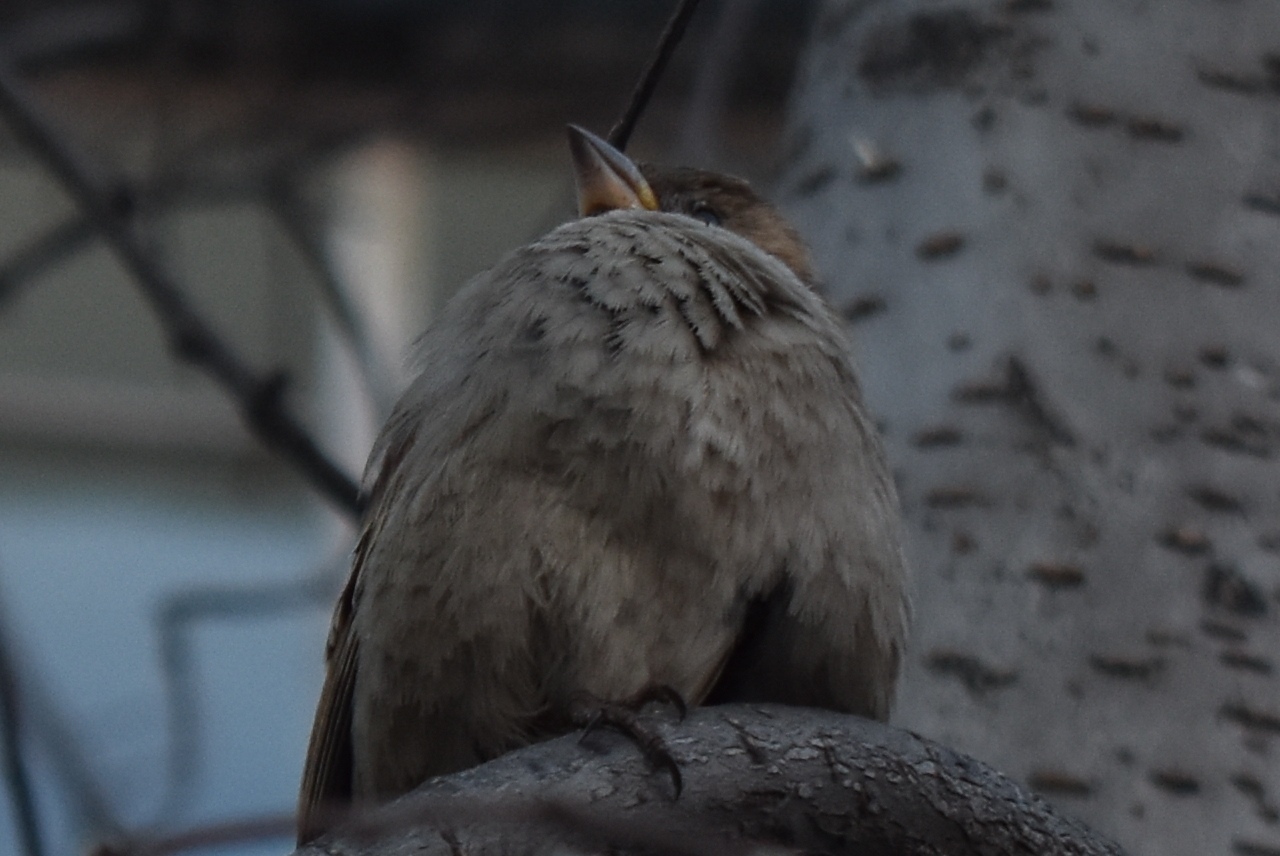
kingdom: Animalia
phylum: Chordata
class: Aves
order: Passeriformes
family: Passeridae
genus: Passer
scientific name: Passer domesticus
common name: House sparrow
